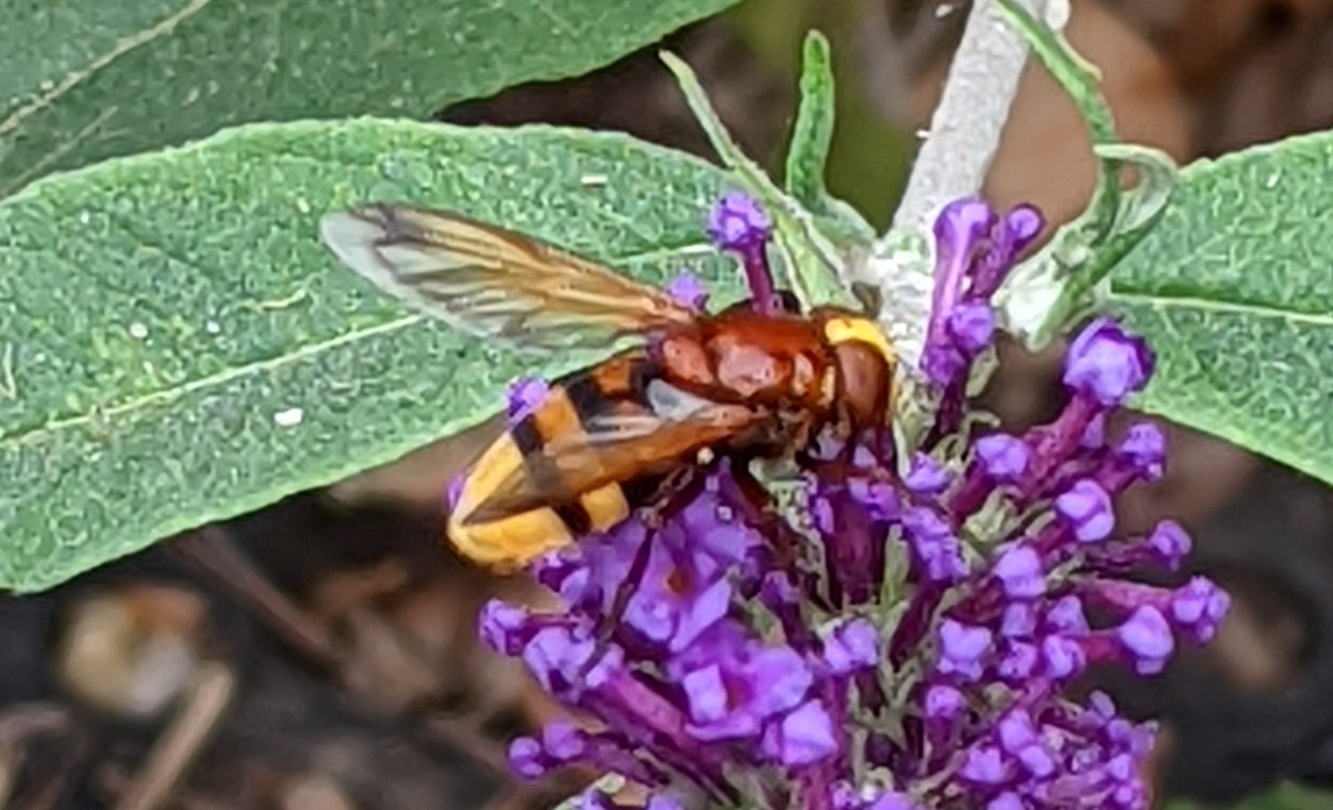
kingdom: Animalia
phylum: Arthropoda
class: Insecta
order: Diptera
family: Syrphidae
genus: Volucella
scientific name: Volucella zonaria
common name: Hornet hoverfly
